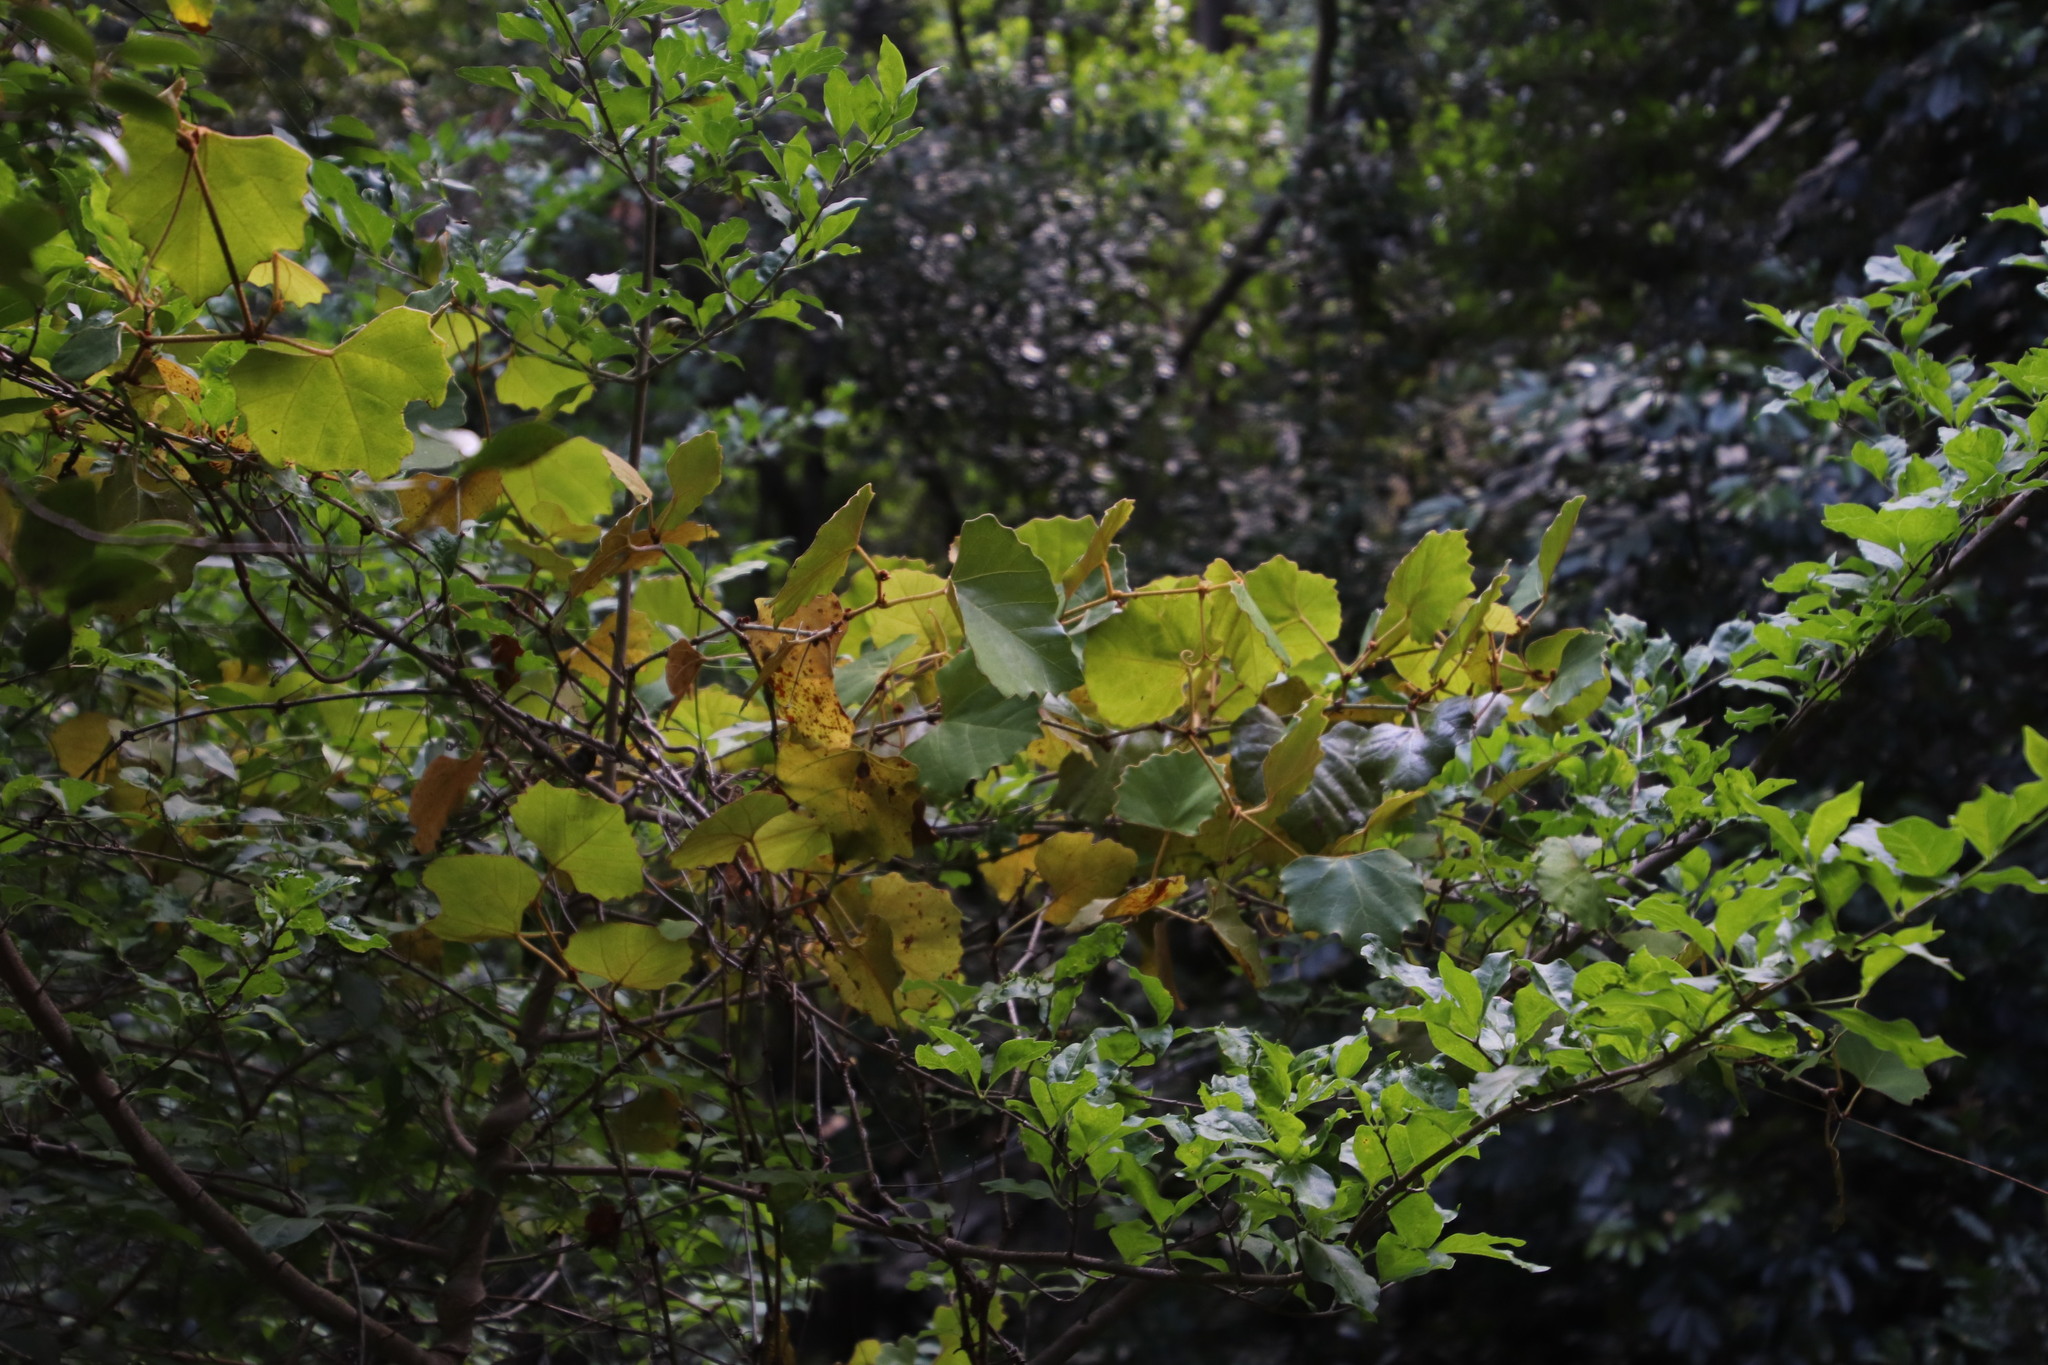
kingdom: Plantae
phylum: Tracheophyta
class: Magnoliopsida
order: Vitales
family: Vitaceae
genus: Rhoicissus
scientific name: Rhoicissus tomentosa
